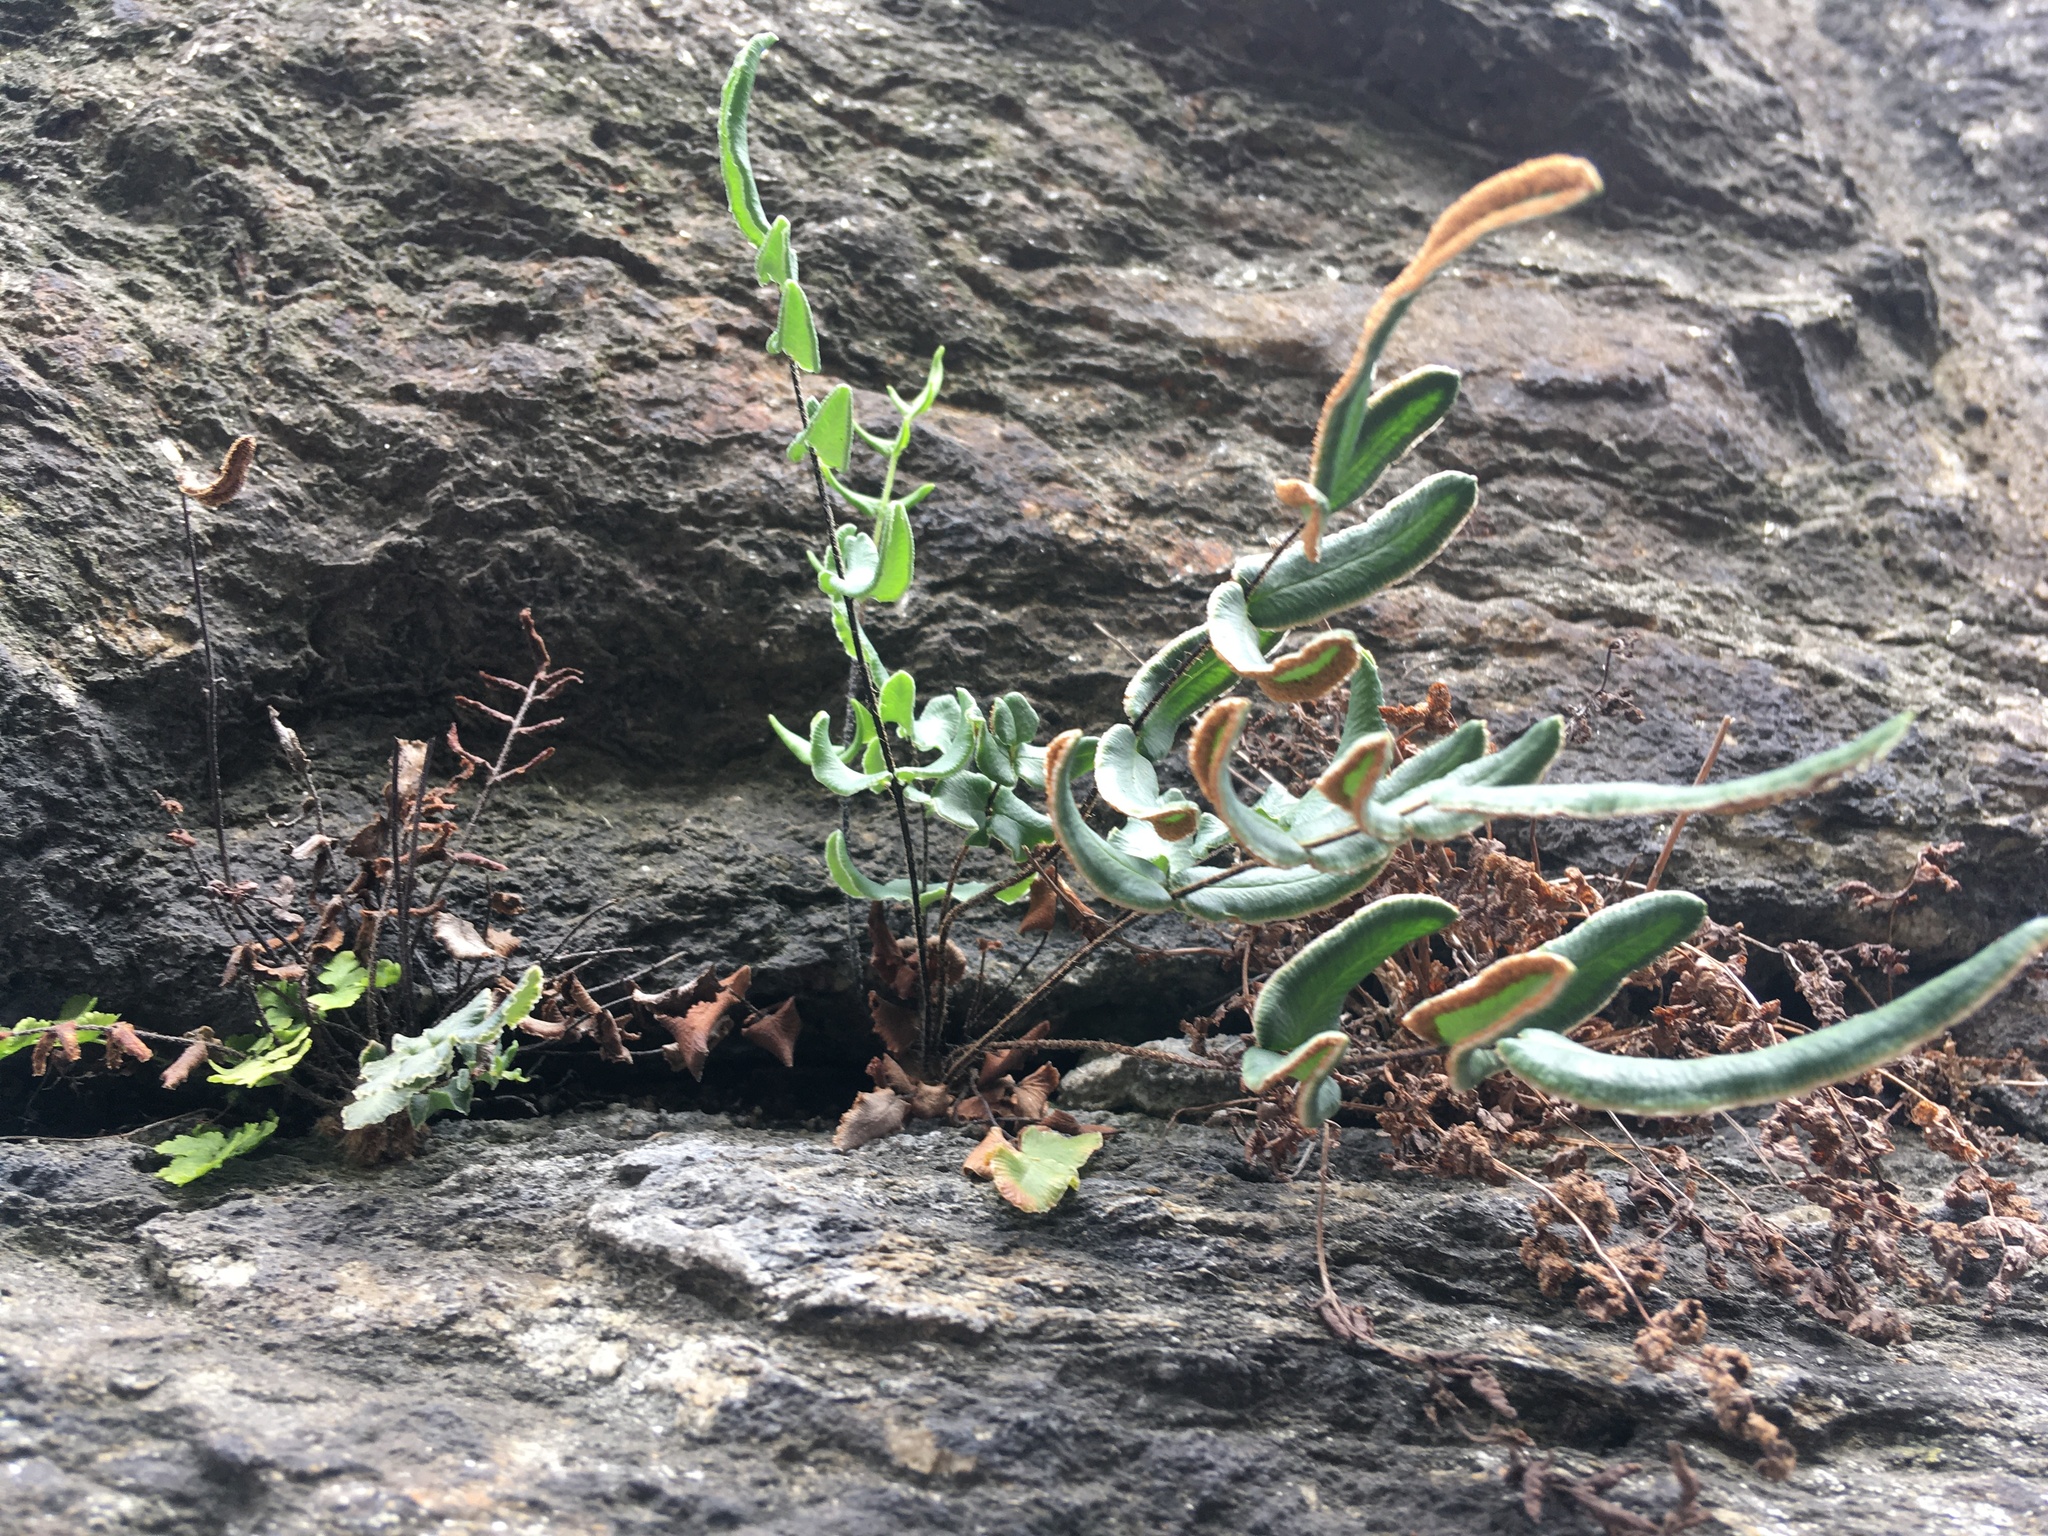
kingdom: Plantae
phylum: Tracheophyta
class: Polypodiopsida
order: Polypodiales
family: Pteridaceae
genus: Pellaea
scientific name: Pellaea atropurpurea
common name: Hairy cliffbrake
